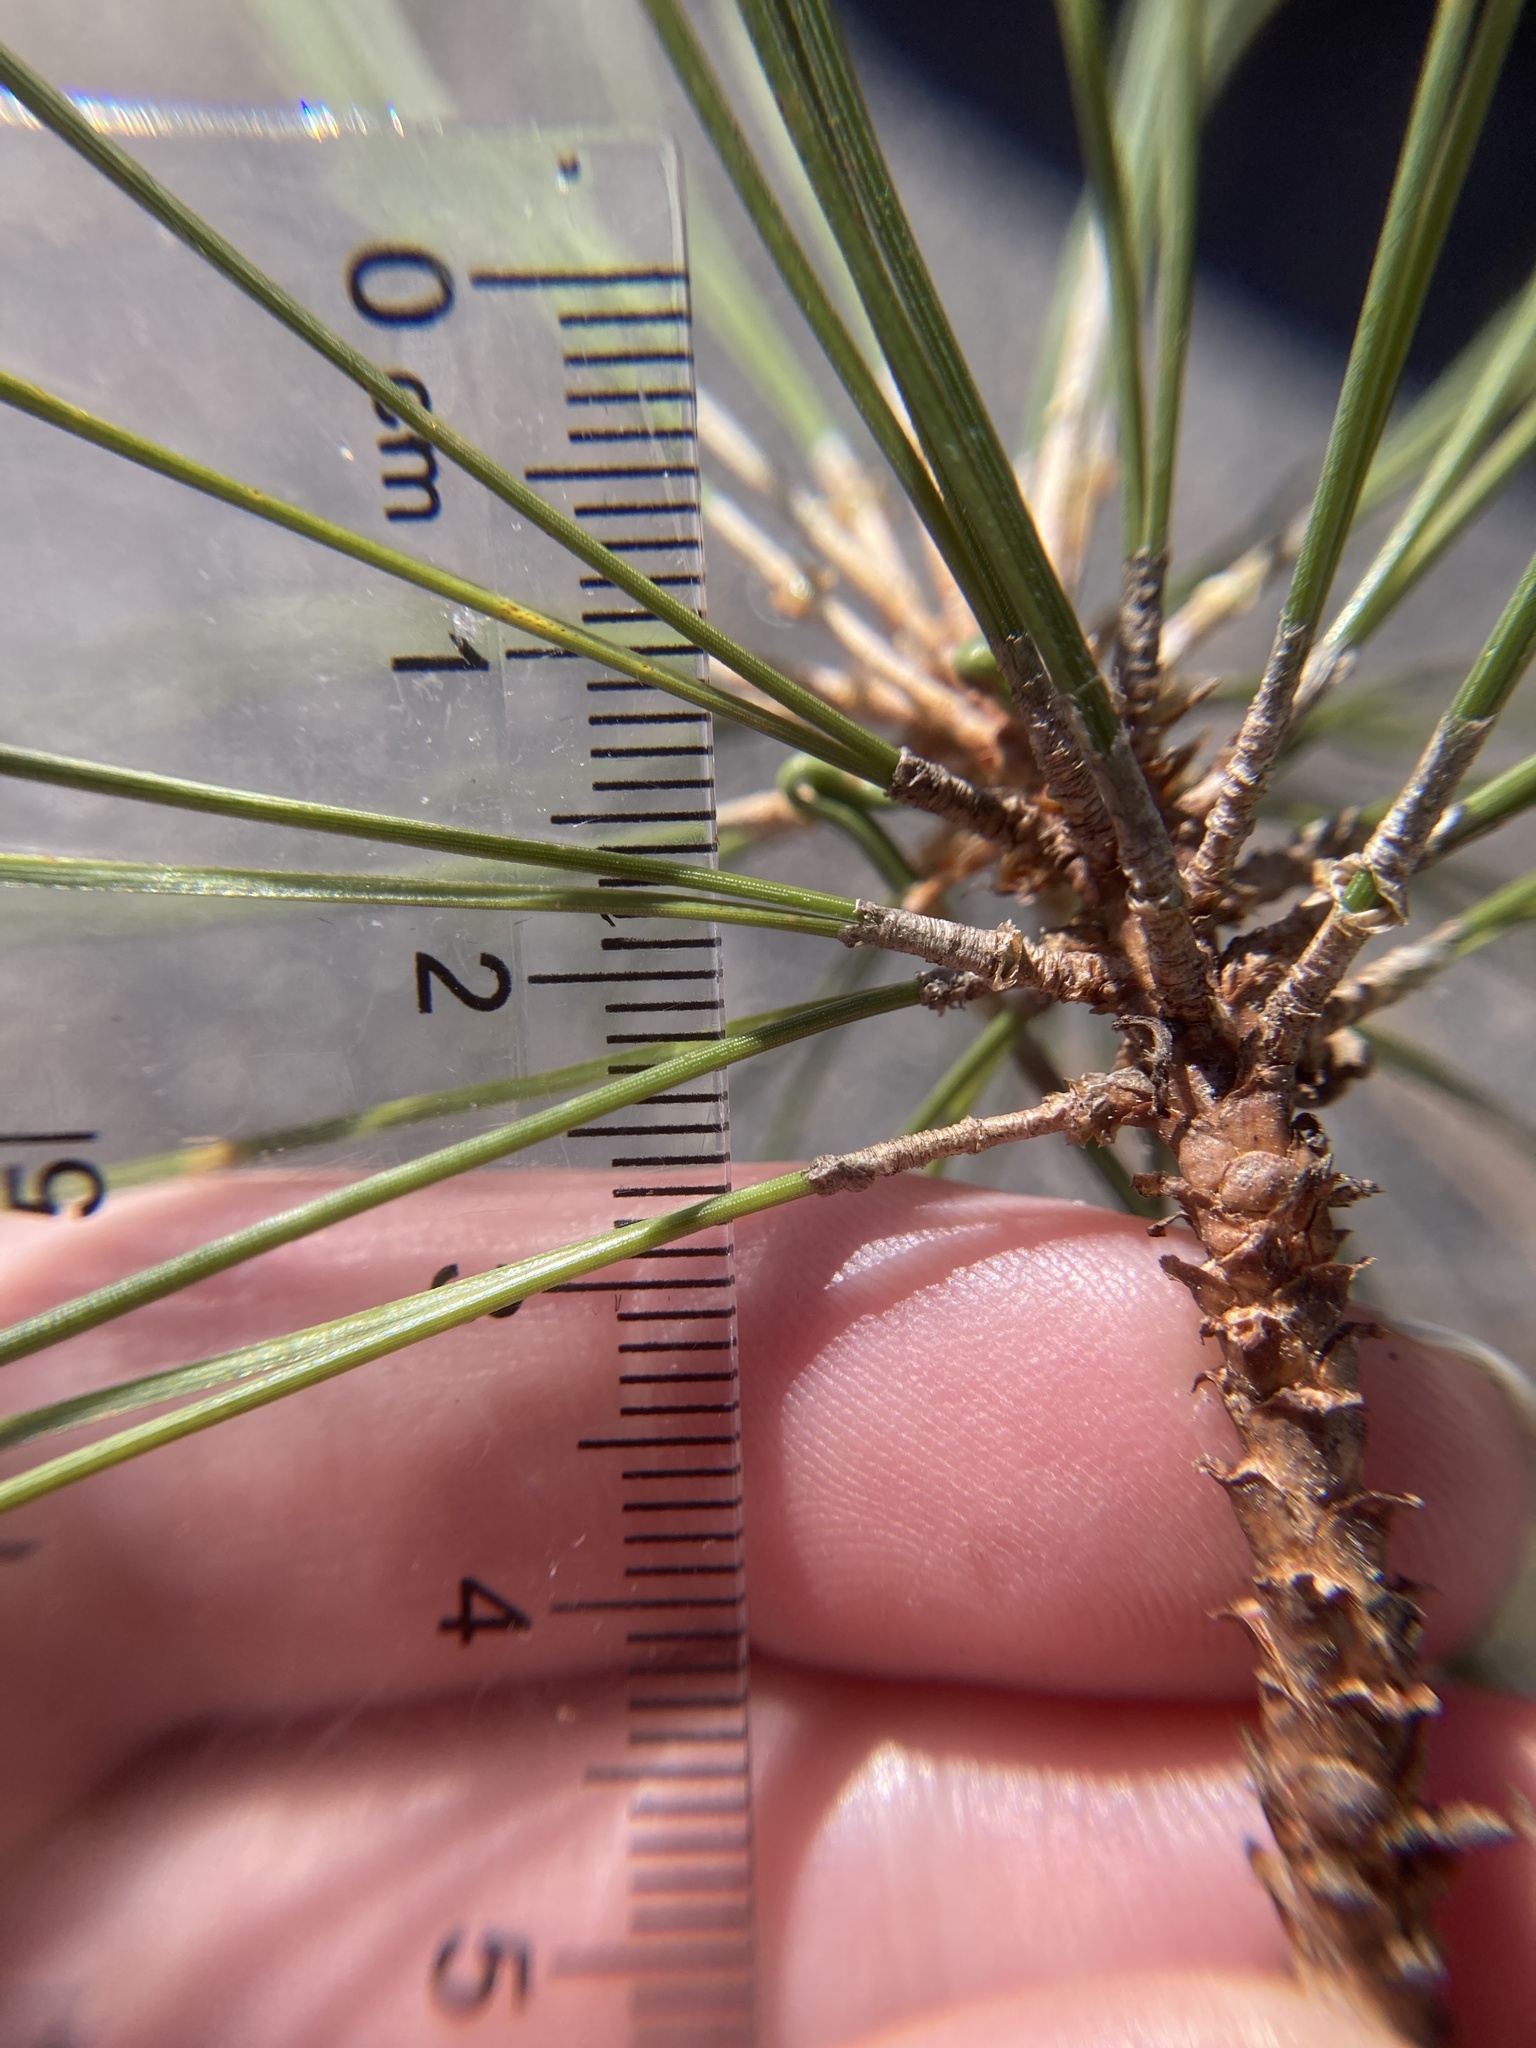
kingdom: Plantae
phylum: Tracheophyta
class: Pinopsida
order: Pinales
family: Pinaceae
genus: Pinus
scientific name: Pinus resinosa
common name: Norway pine
